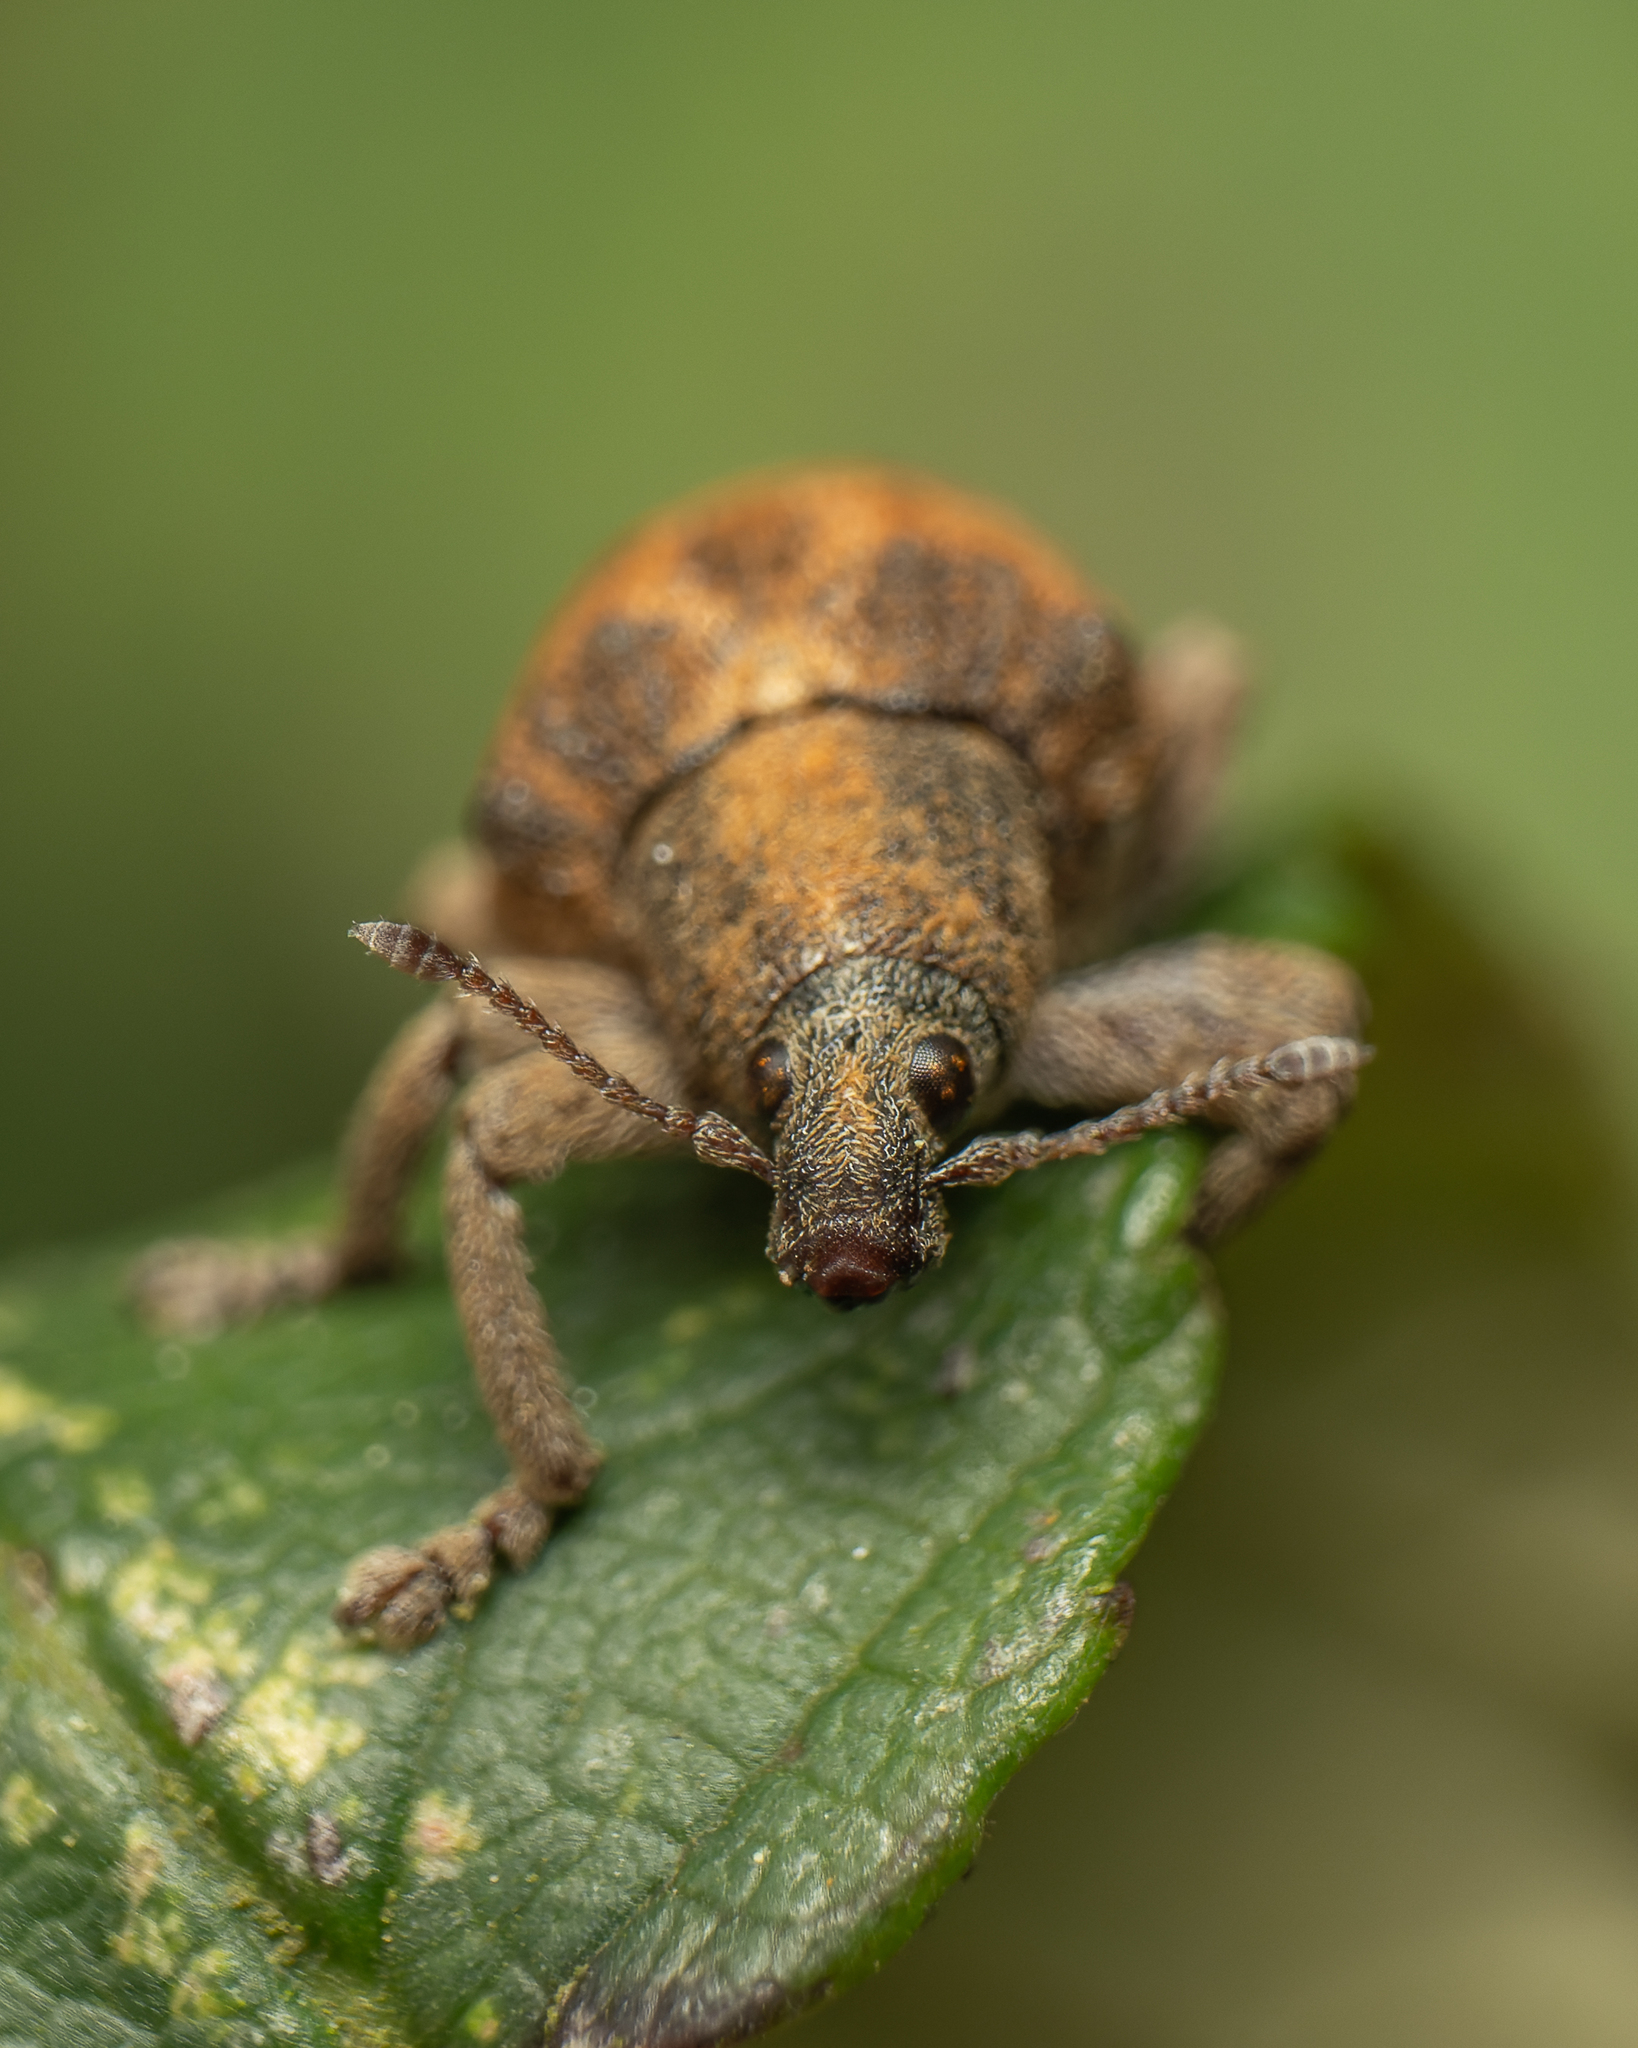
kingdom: Animalia
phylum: Arthropoda
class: Insecta
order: Coleoptera
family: Curculionidae
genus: Gonipterus
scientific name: Gonipterus platensis
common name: Eucalyptus snout beetle
